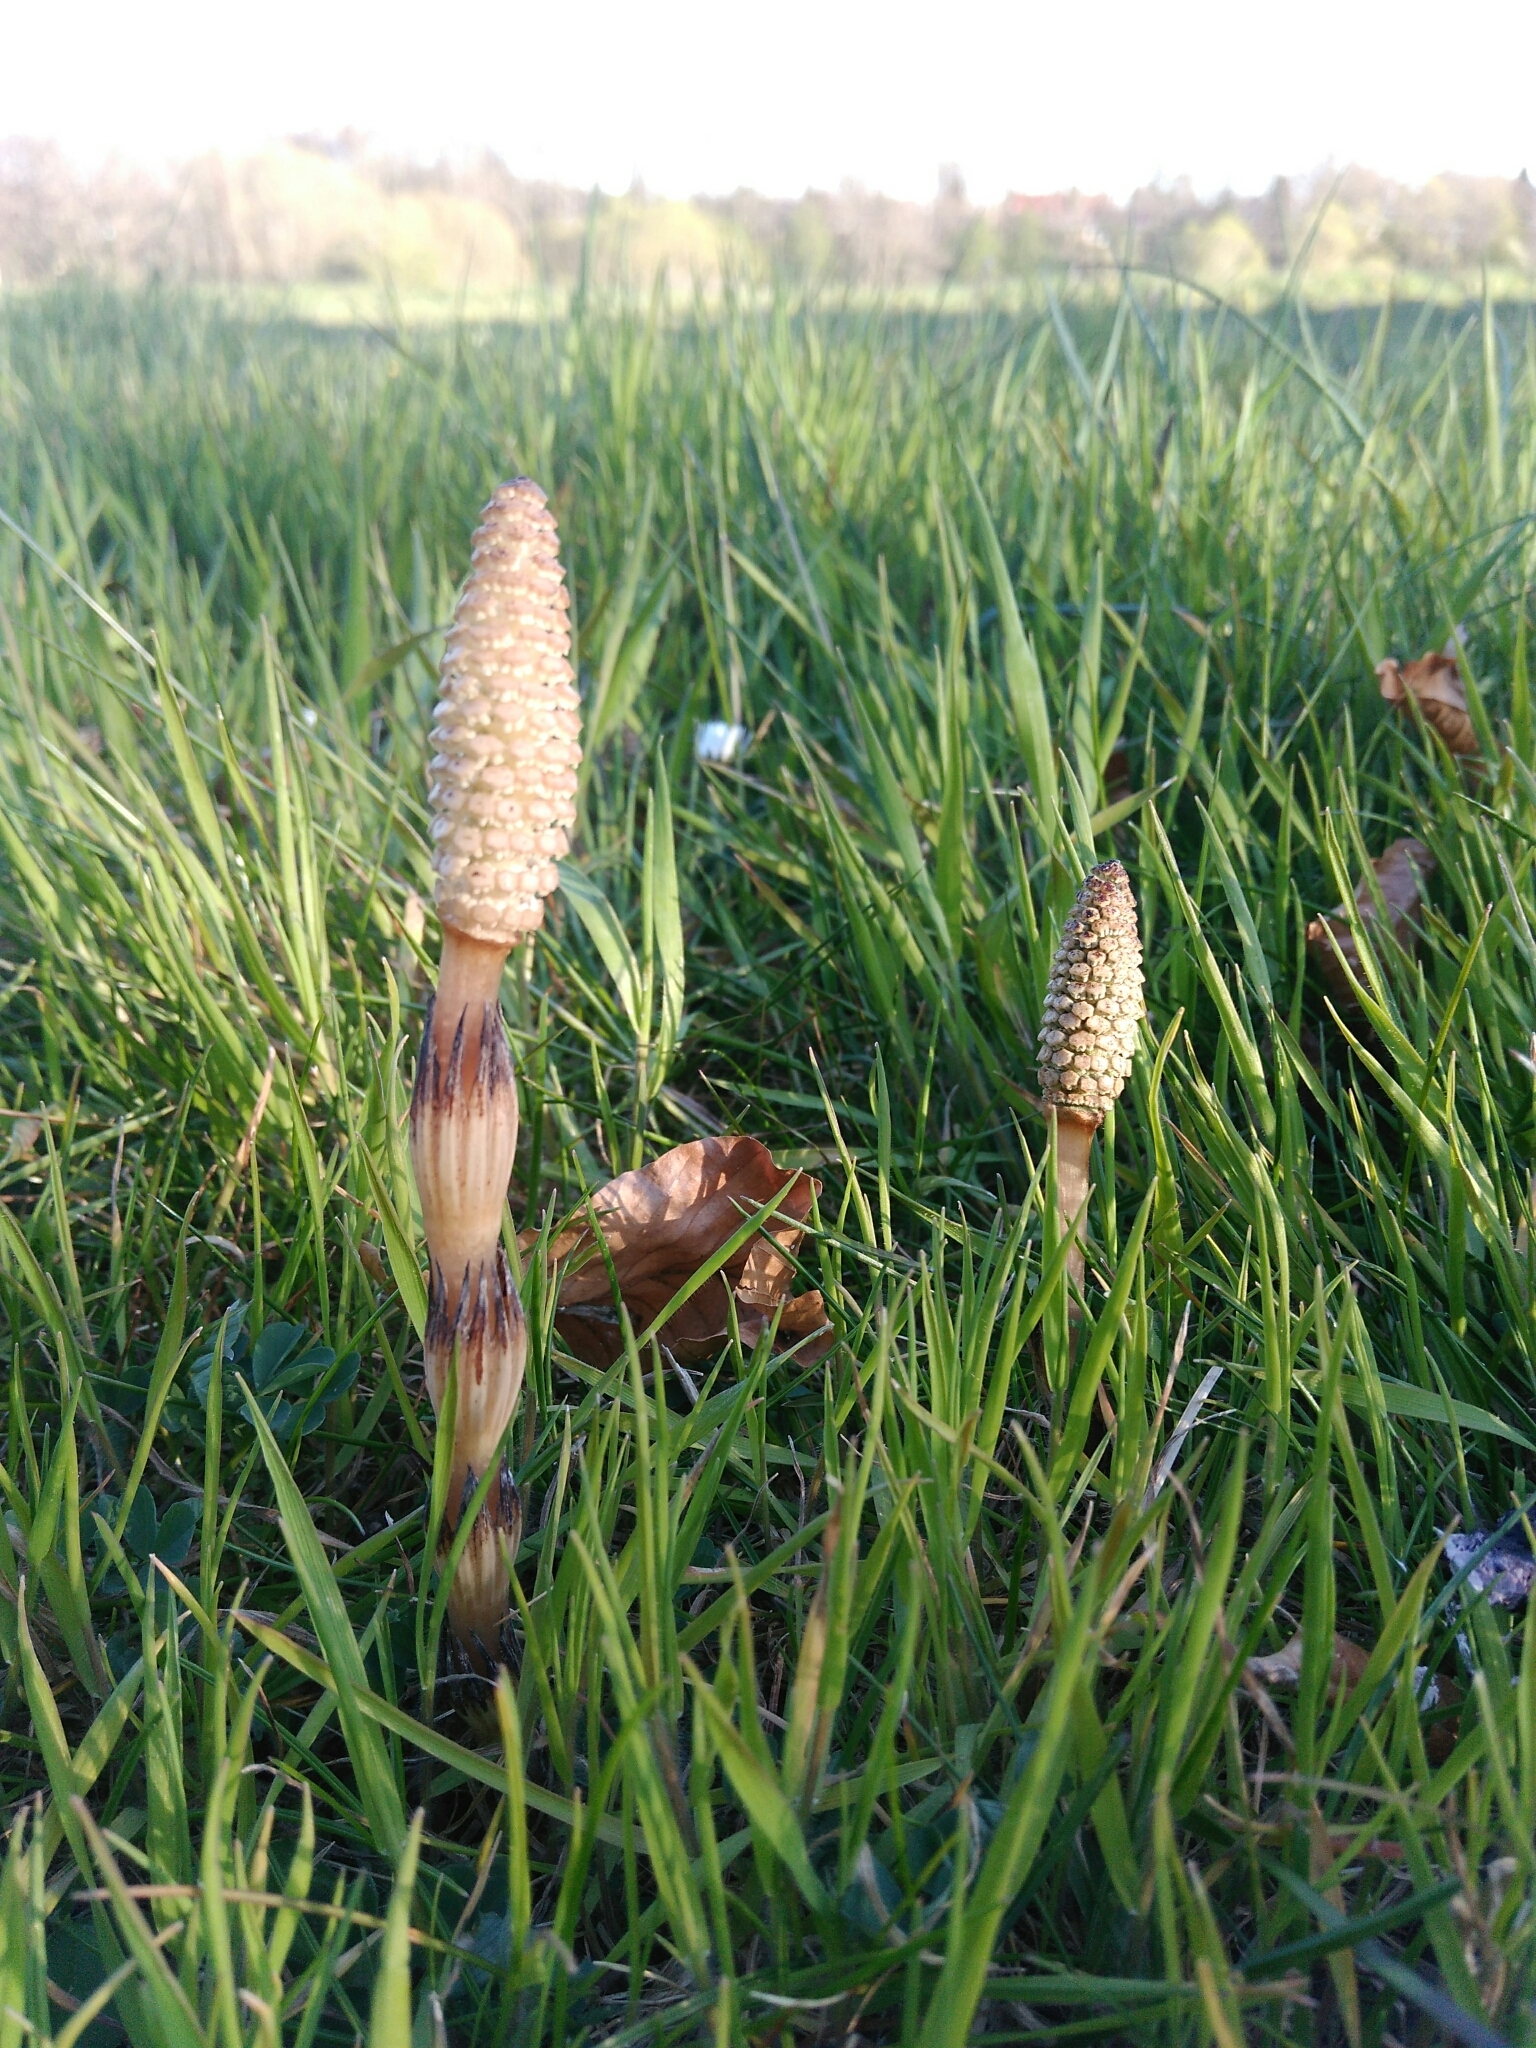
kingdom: Plantae
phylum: Tracheophyta
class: Polypodiopsida
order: Equisetales
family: Equisetaceae
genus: Equisetum
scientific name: Equisetum arvense
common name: Field horsetail
